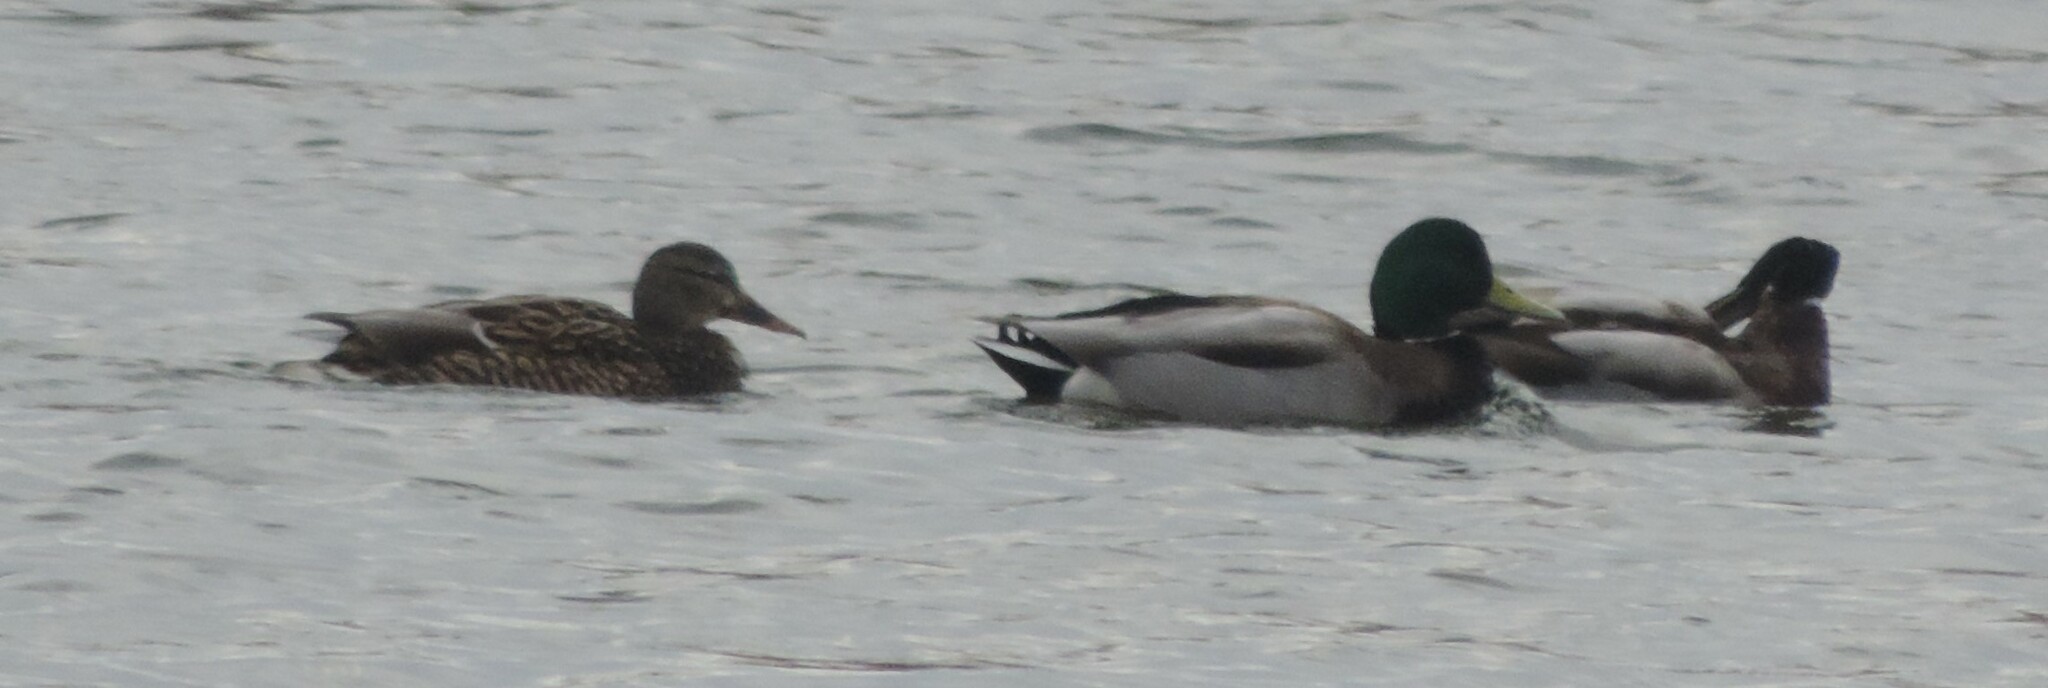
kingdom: Animalia
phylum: Chordata
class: Aves
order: Anseriformes
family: Anatidae
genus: Anas
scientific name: Anas platyrhynchos
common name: Mallard
